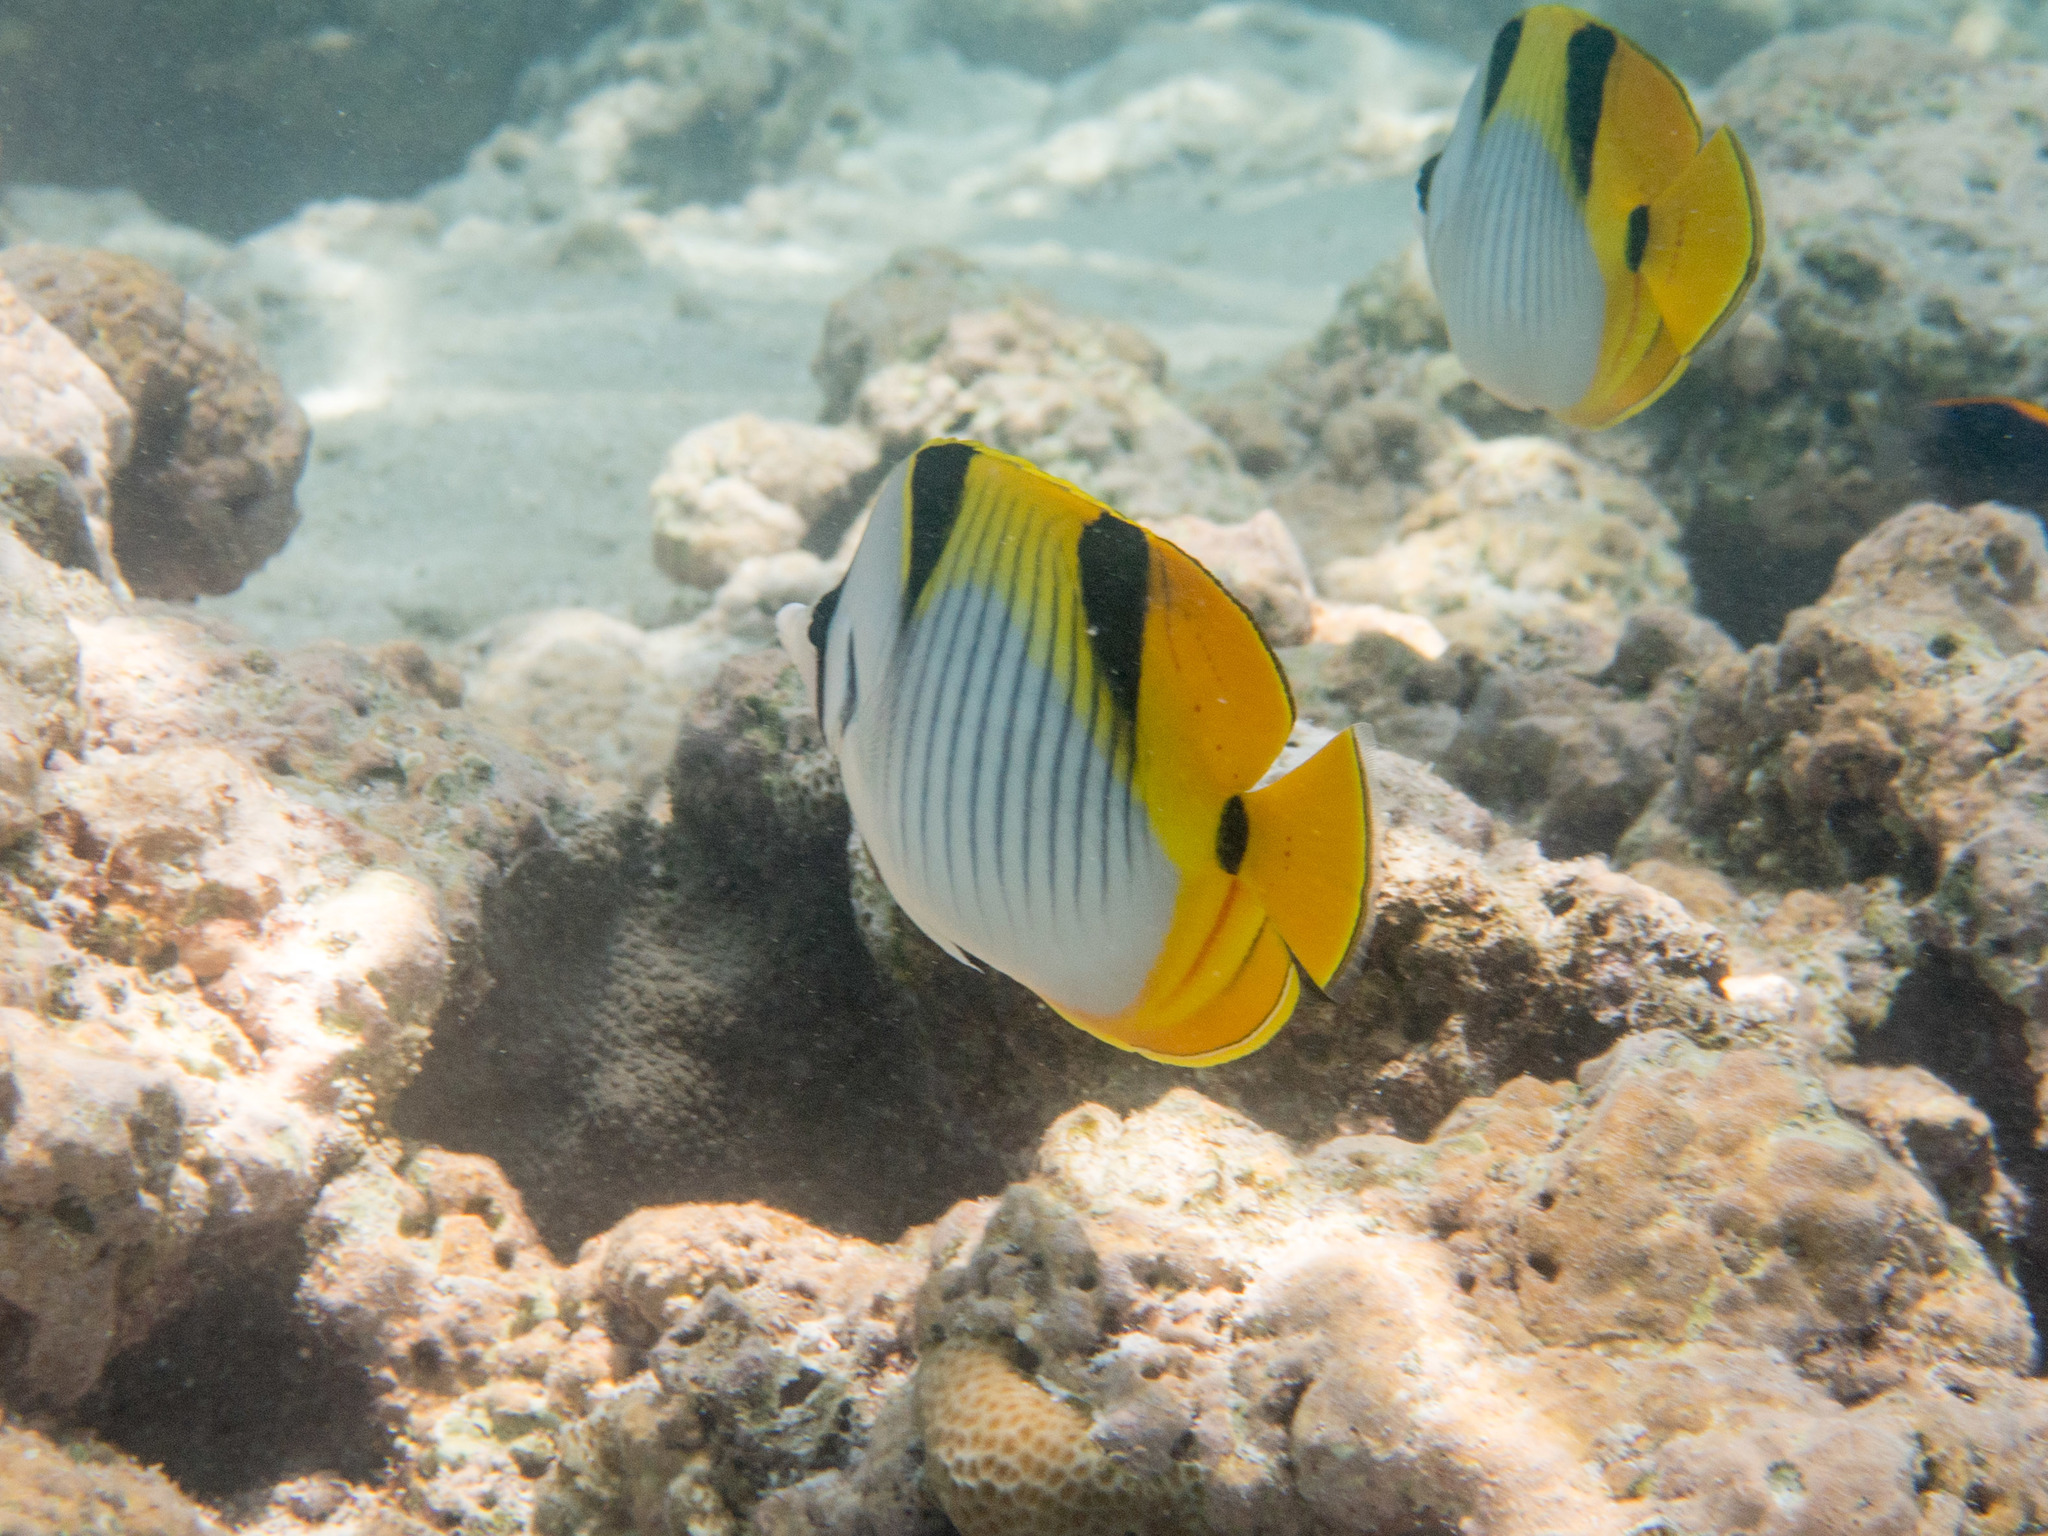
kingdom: Animalia
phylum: Chordata
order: Perciformes
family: Chaetodontidae
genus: Chaetodon
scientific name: Chaetodon falcula
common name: Blackwedged butterflyfish
